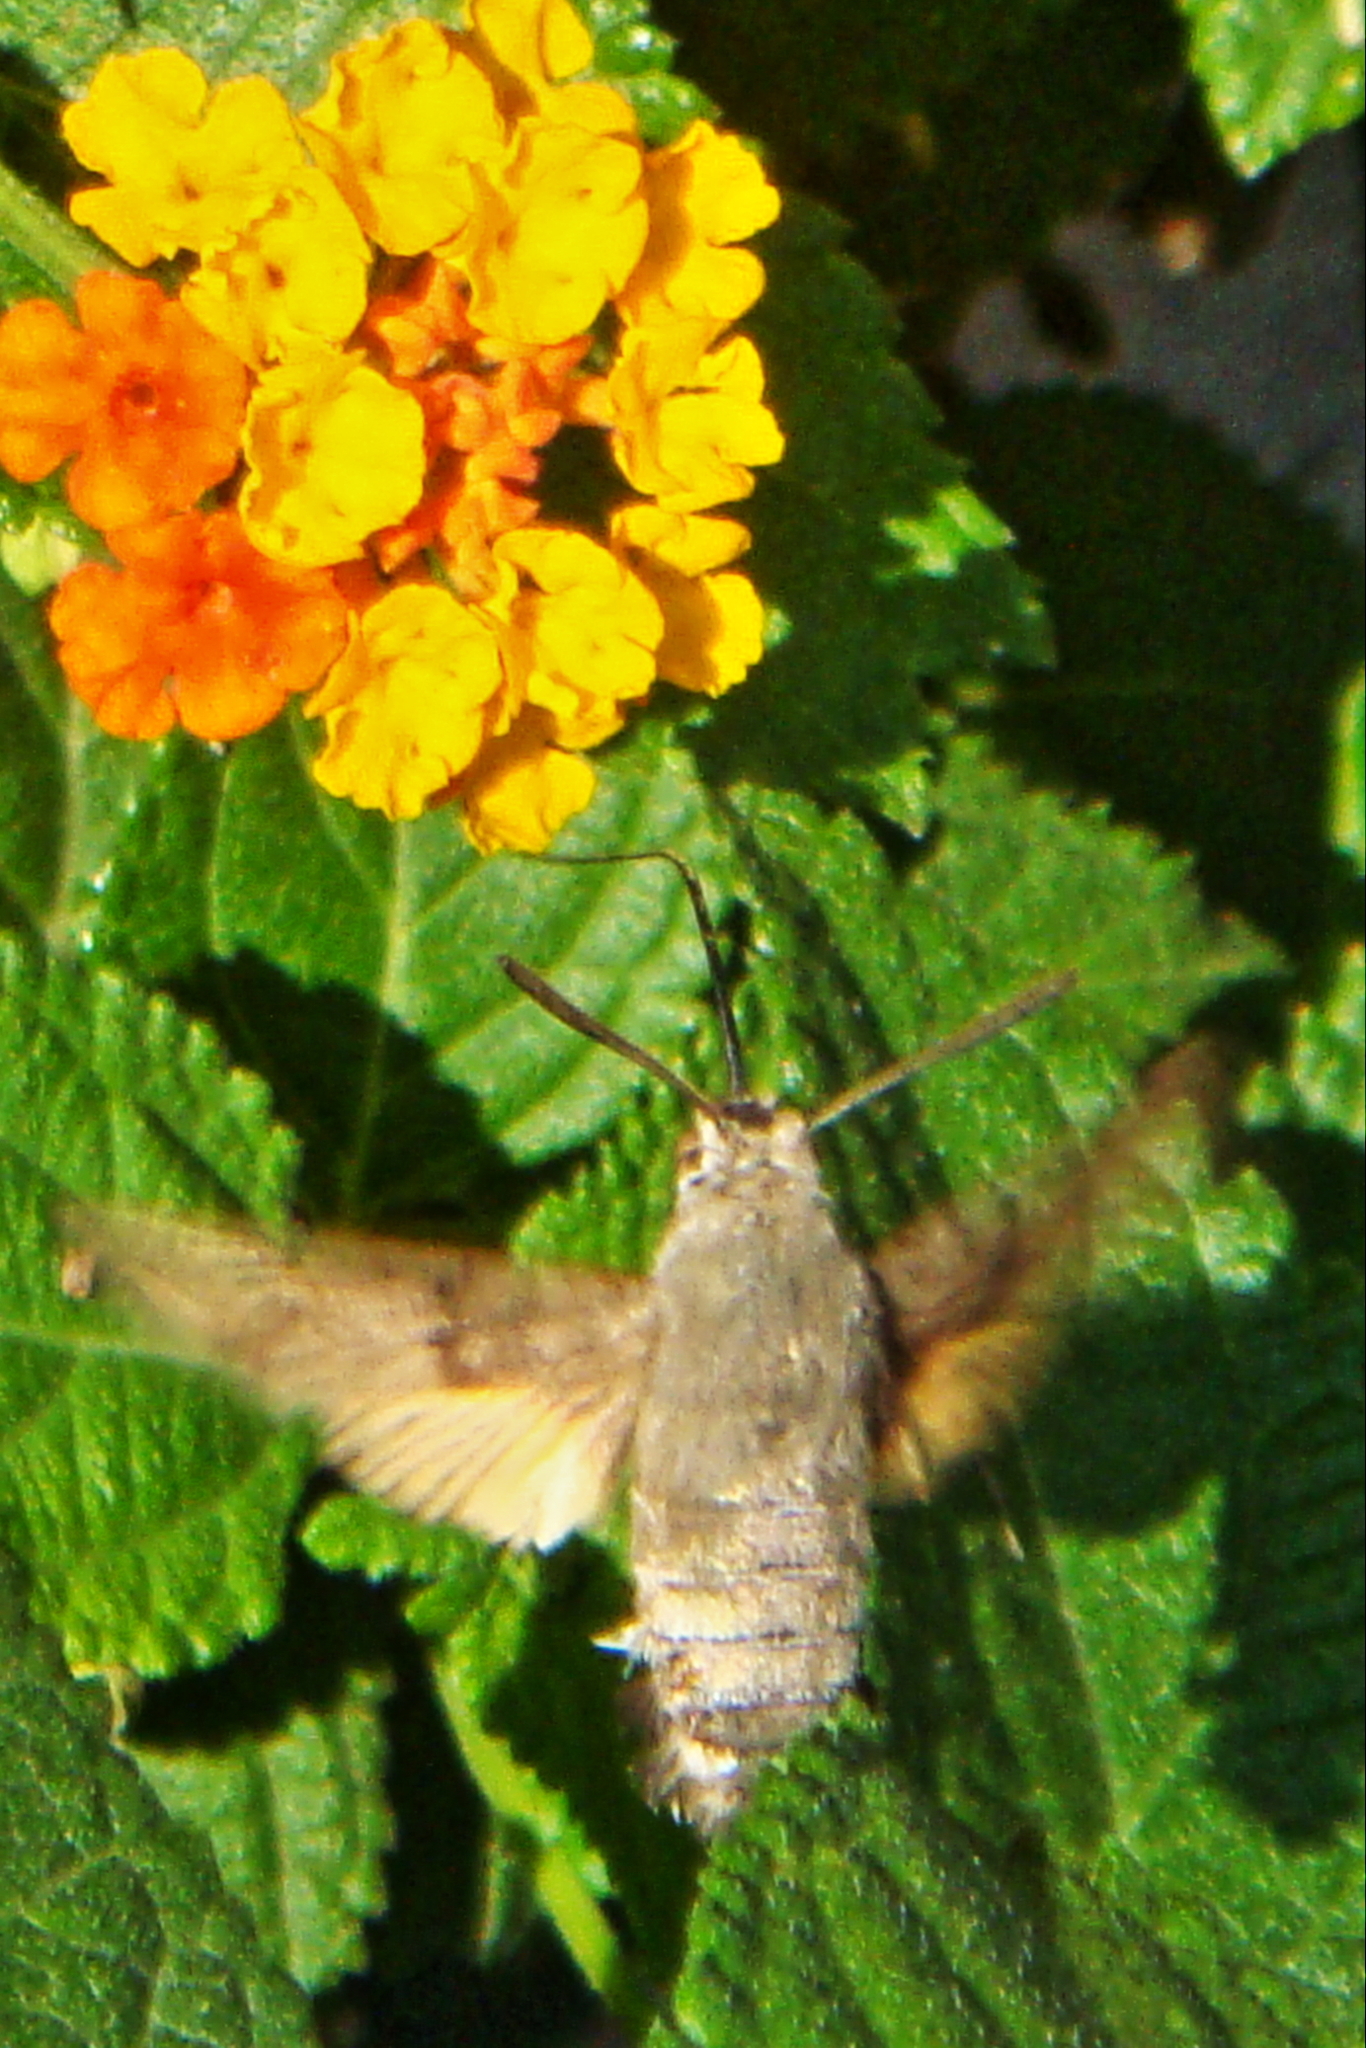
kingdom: Animalia
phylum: Arthropoda
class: Insecta
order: Lepidoptera
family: Sphingidae
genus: Macroglossum
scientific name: Macroglossum stellatarum
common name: Humming-bird hawk-moth
